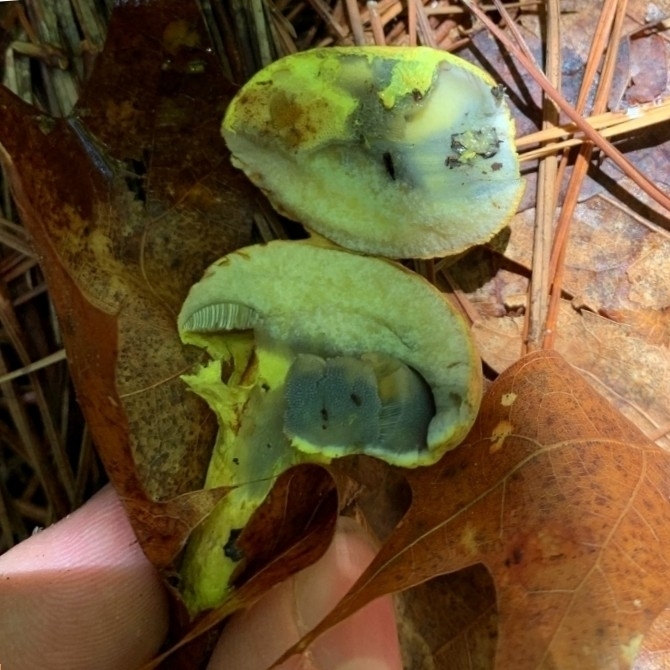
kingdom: Fungi
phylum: Basidiomycota
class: Agaricomycetes
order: Boletales
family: Boletaceae
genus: Pulveroboletus
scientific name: Pulveroboletus ravenelii
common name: Powdery sulfur bolete
